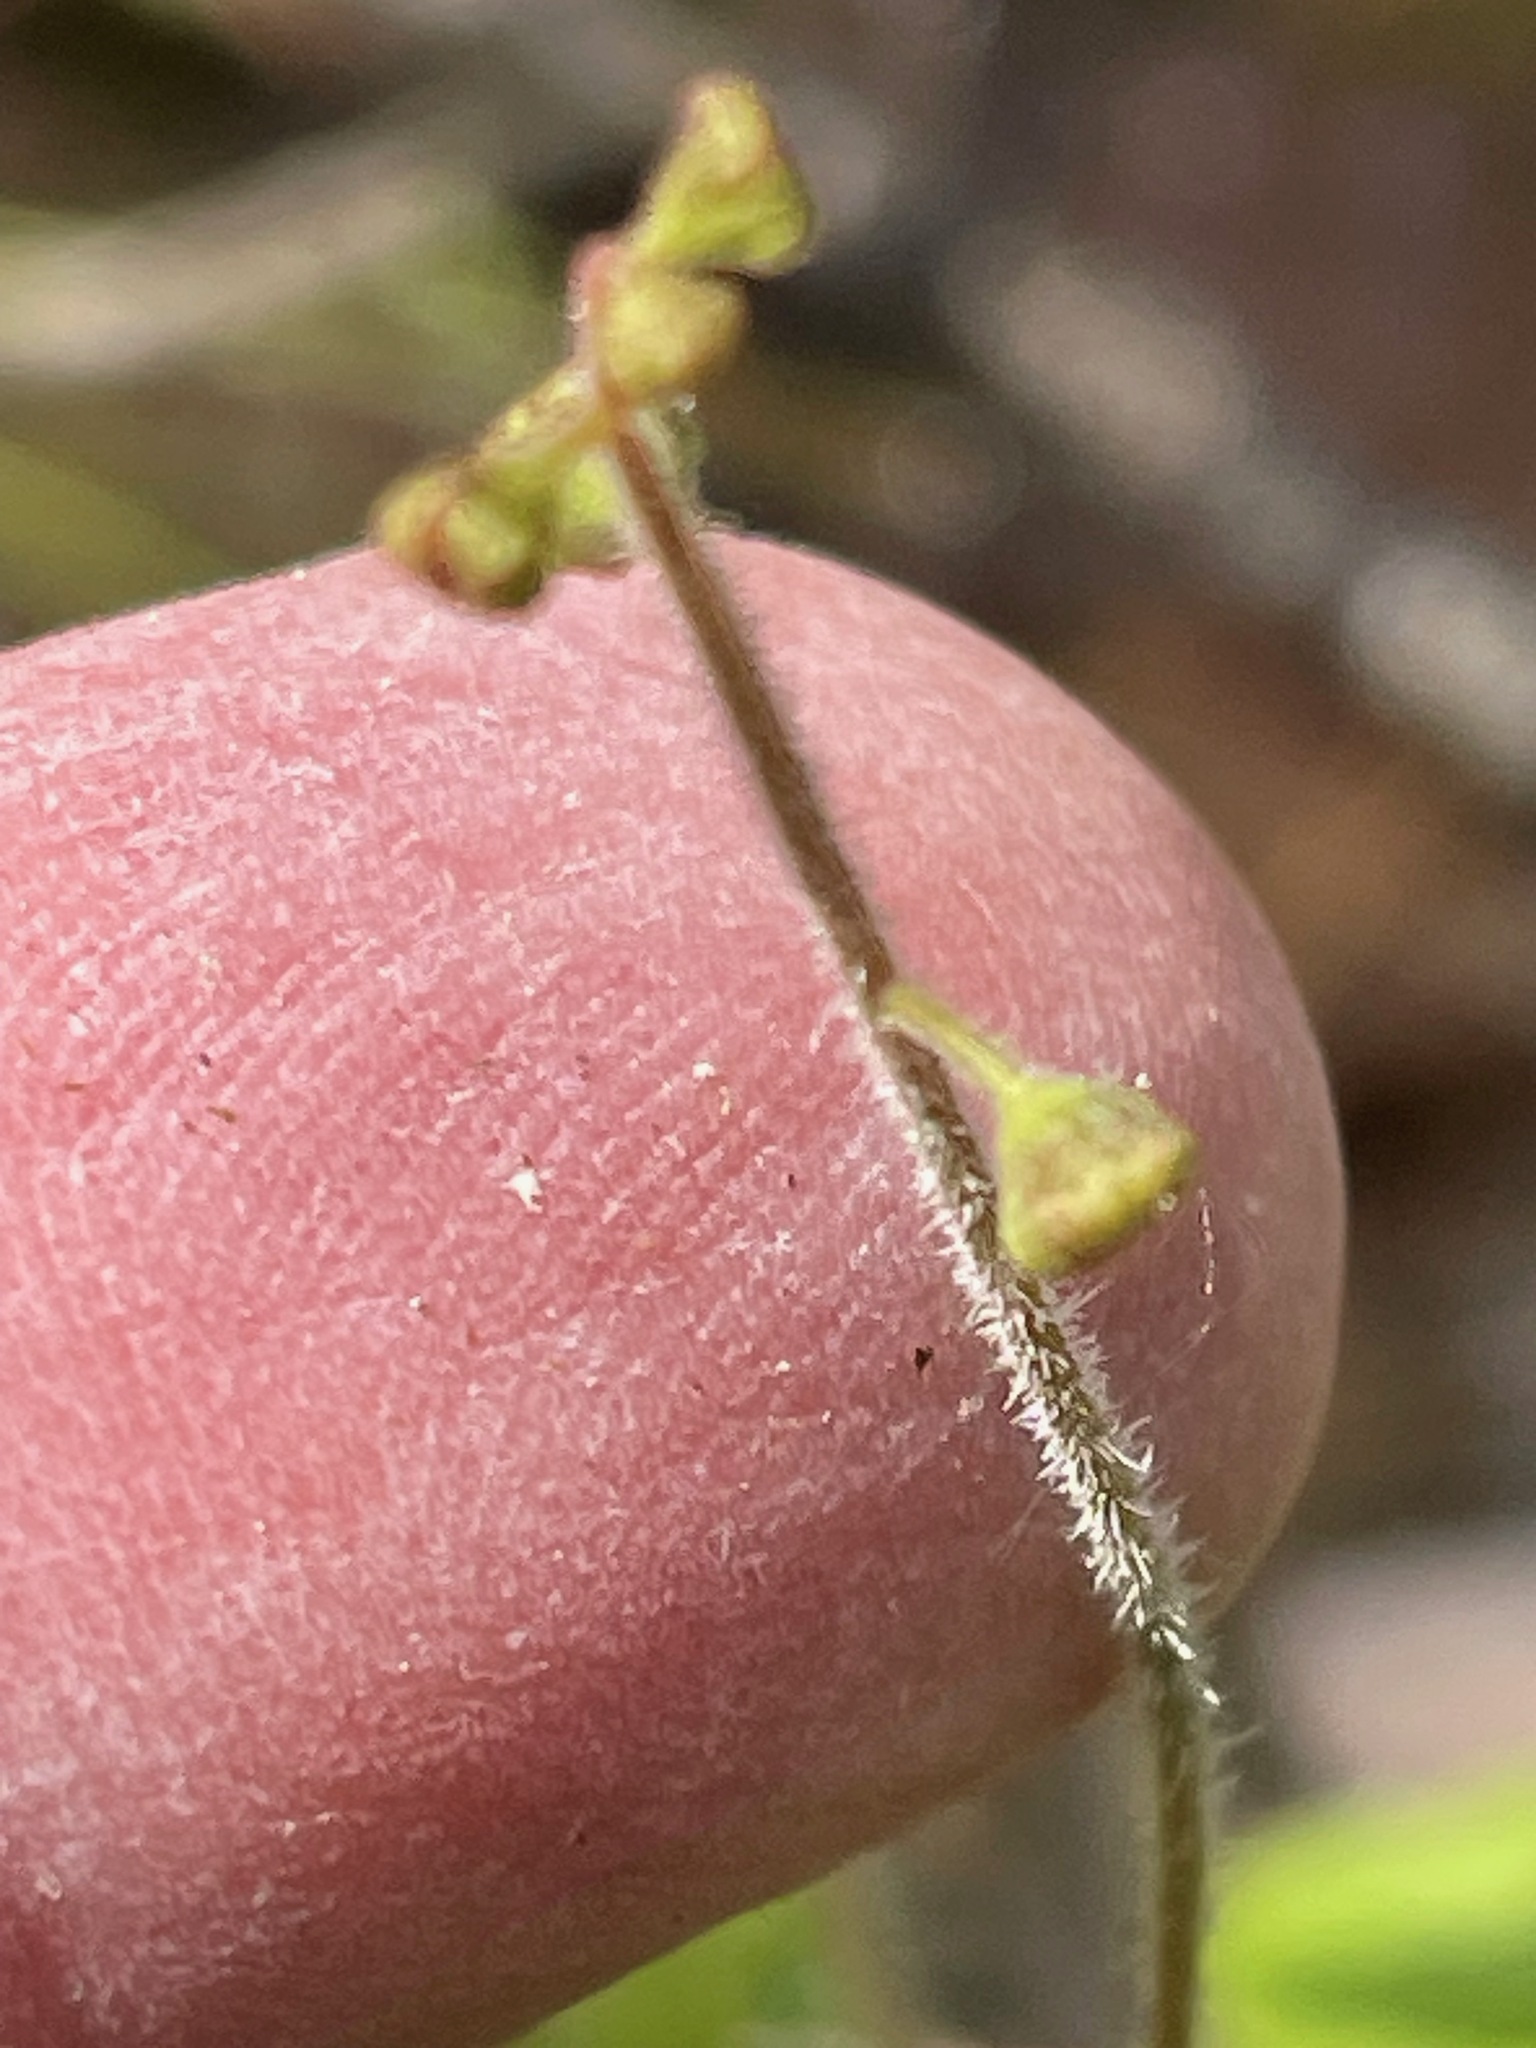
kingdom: Plantae
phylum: Tracheophyta
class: Magnoliopsida
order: Saxifragales
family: Saxifragaceae
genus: Mitella
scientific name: Mitella nuda
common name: Bare-stemmed bishop's-cap
